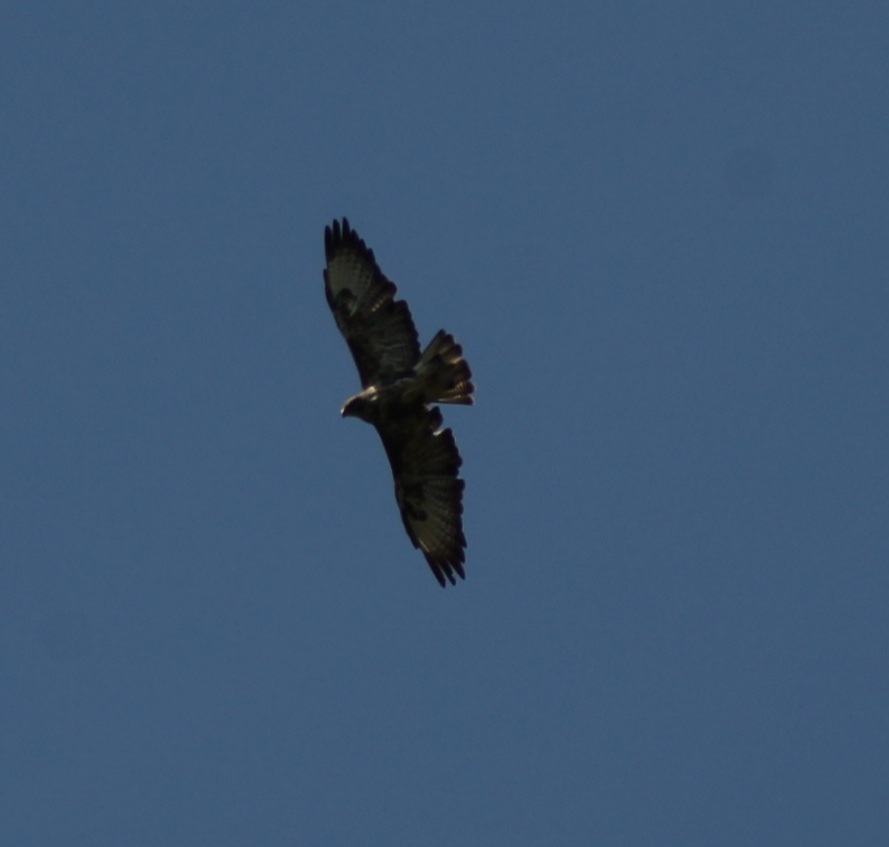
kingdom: Animalia
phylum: Chordata
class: Aves
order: Accipitriformes
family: Accipitridae
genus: Buteo
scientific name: Buteo buteo
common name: Common buzzard
